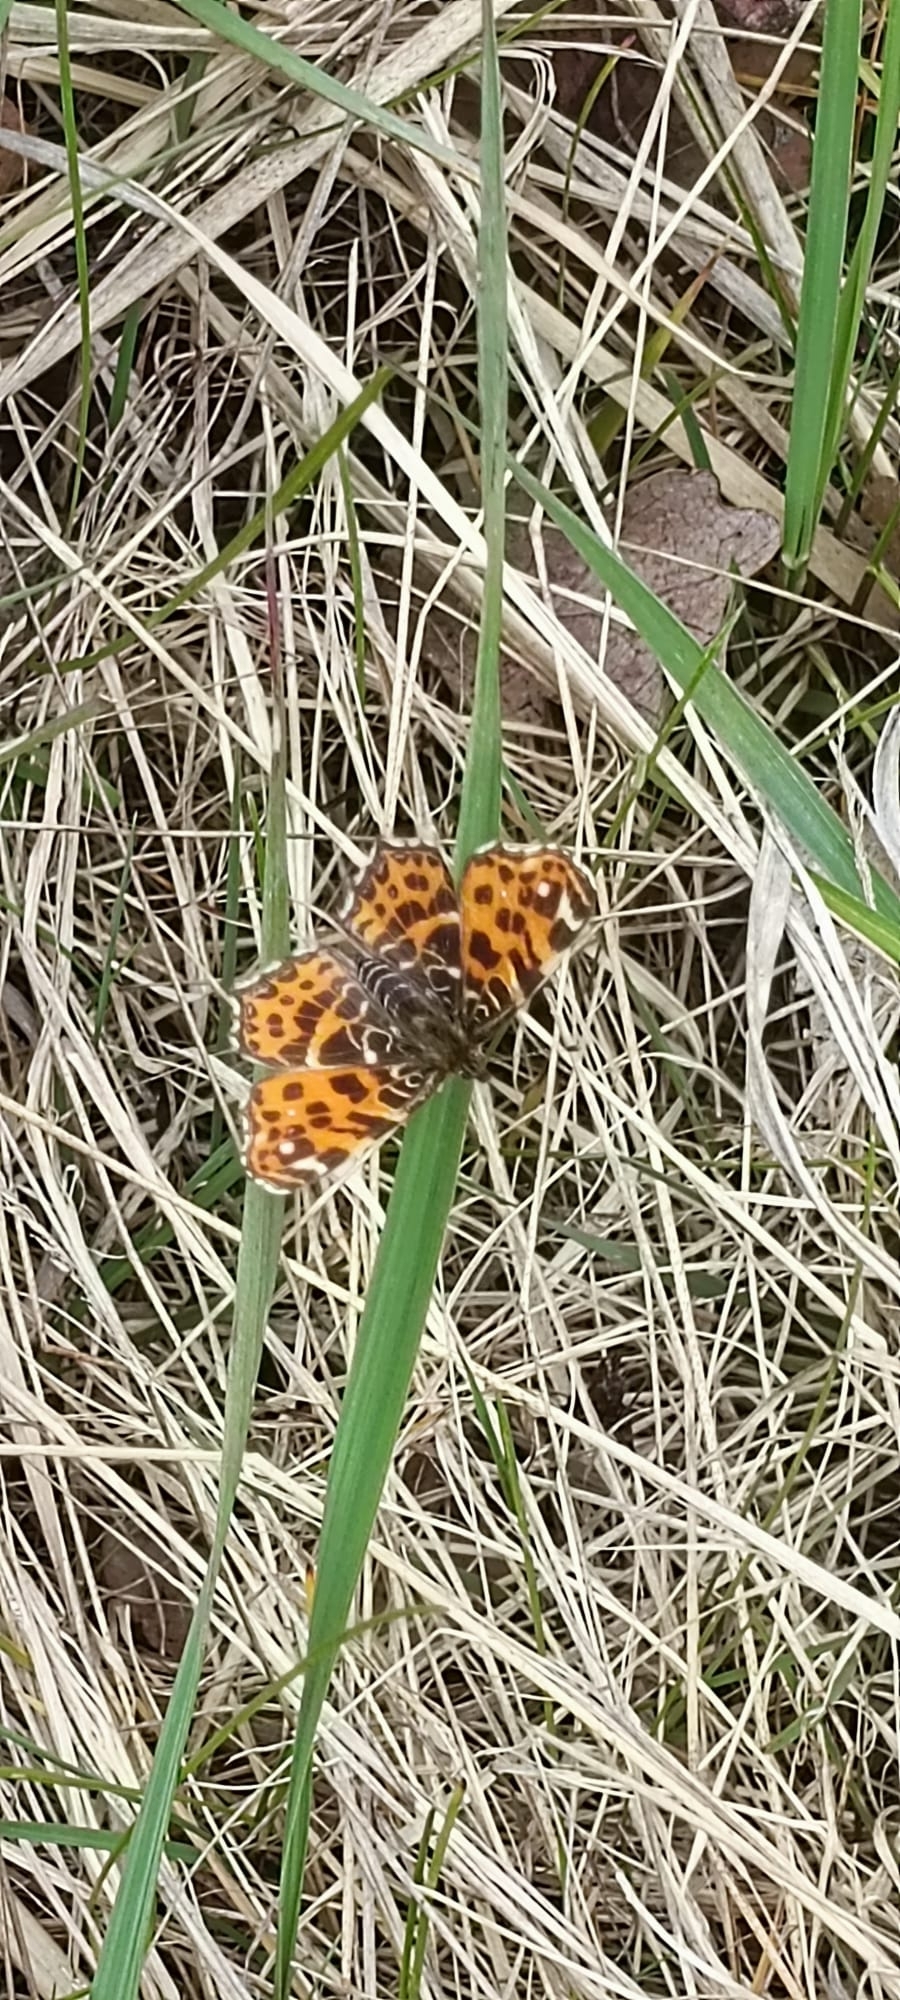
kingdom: Animalia
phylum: Arthropoda
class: Insecta
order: Lepidoptera
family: Nymphalidae
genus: Araschnia
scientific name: Araschnia levana
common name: Map butterfly
